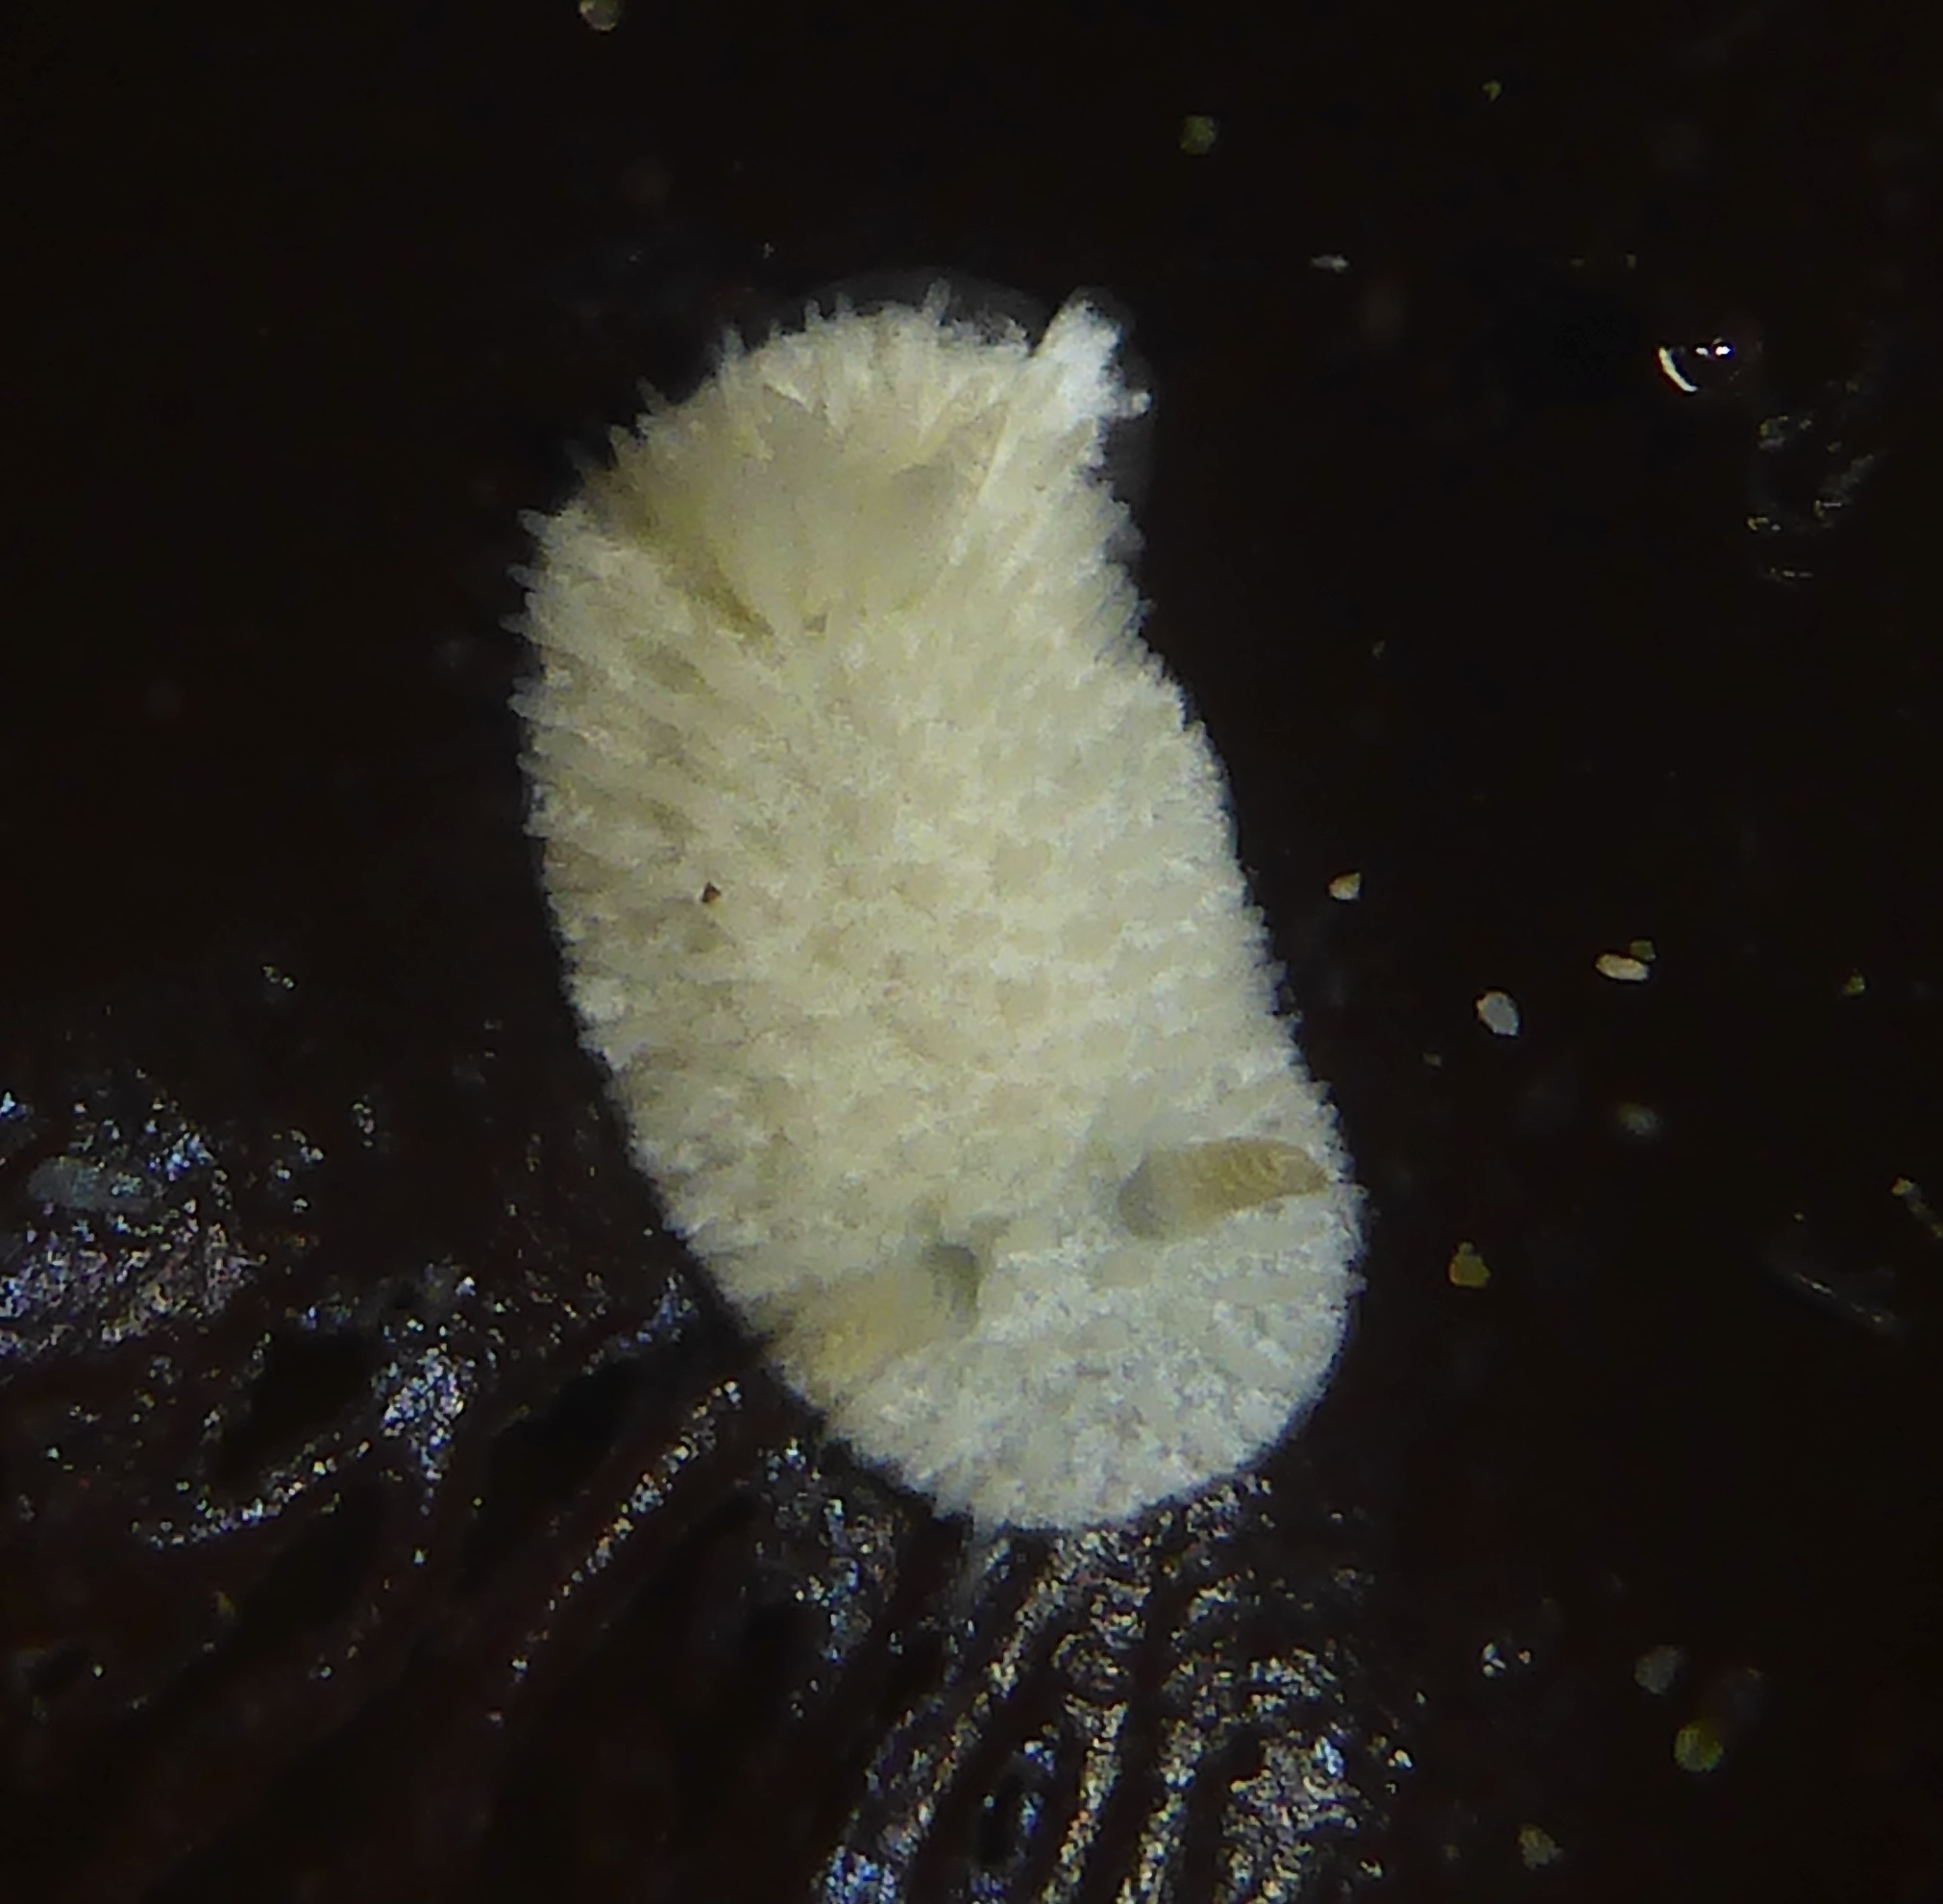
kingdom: Animalia
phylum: Mollusca
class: Gastropoda
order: Nudibranchia
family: Calycidorididae
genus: Diaphorodoris
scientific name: Diaphorodoris lirulatocauda
